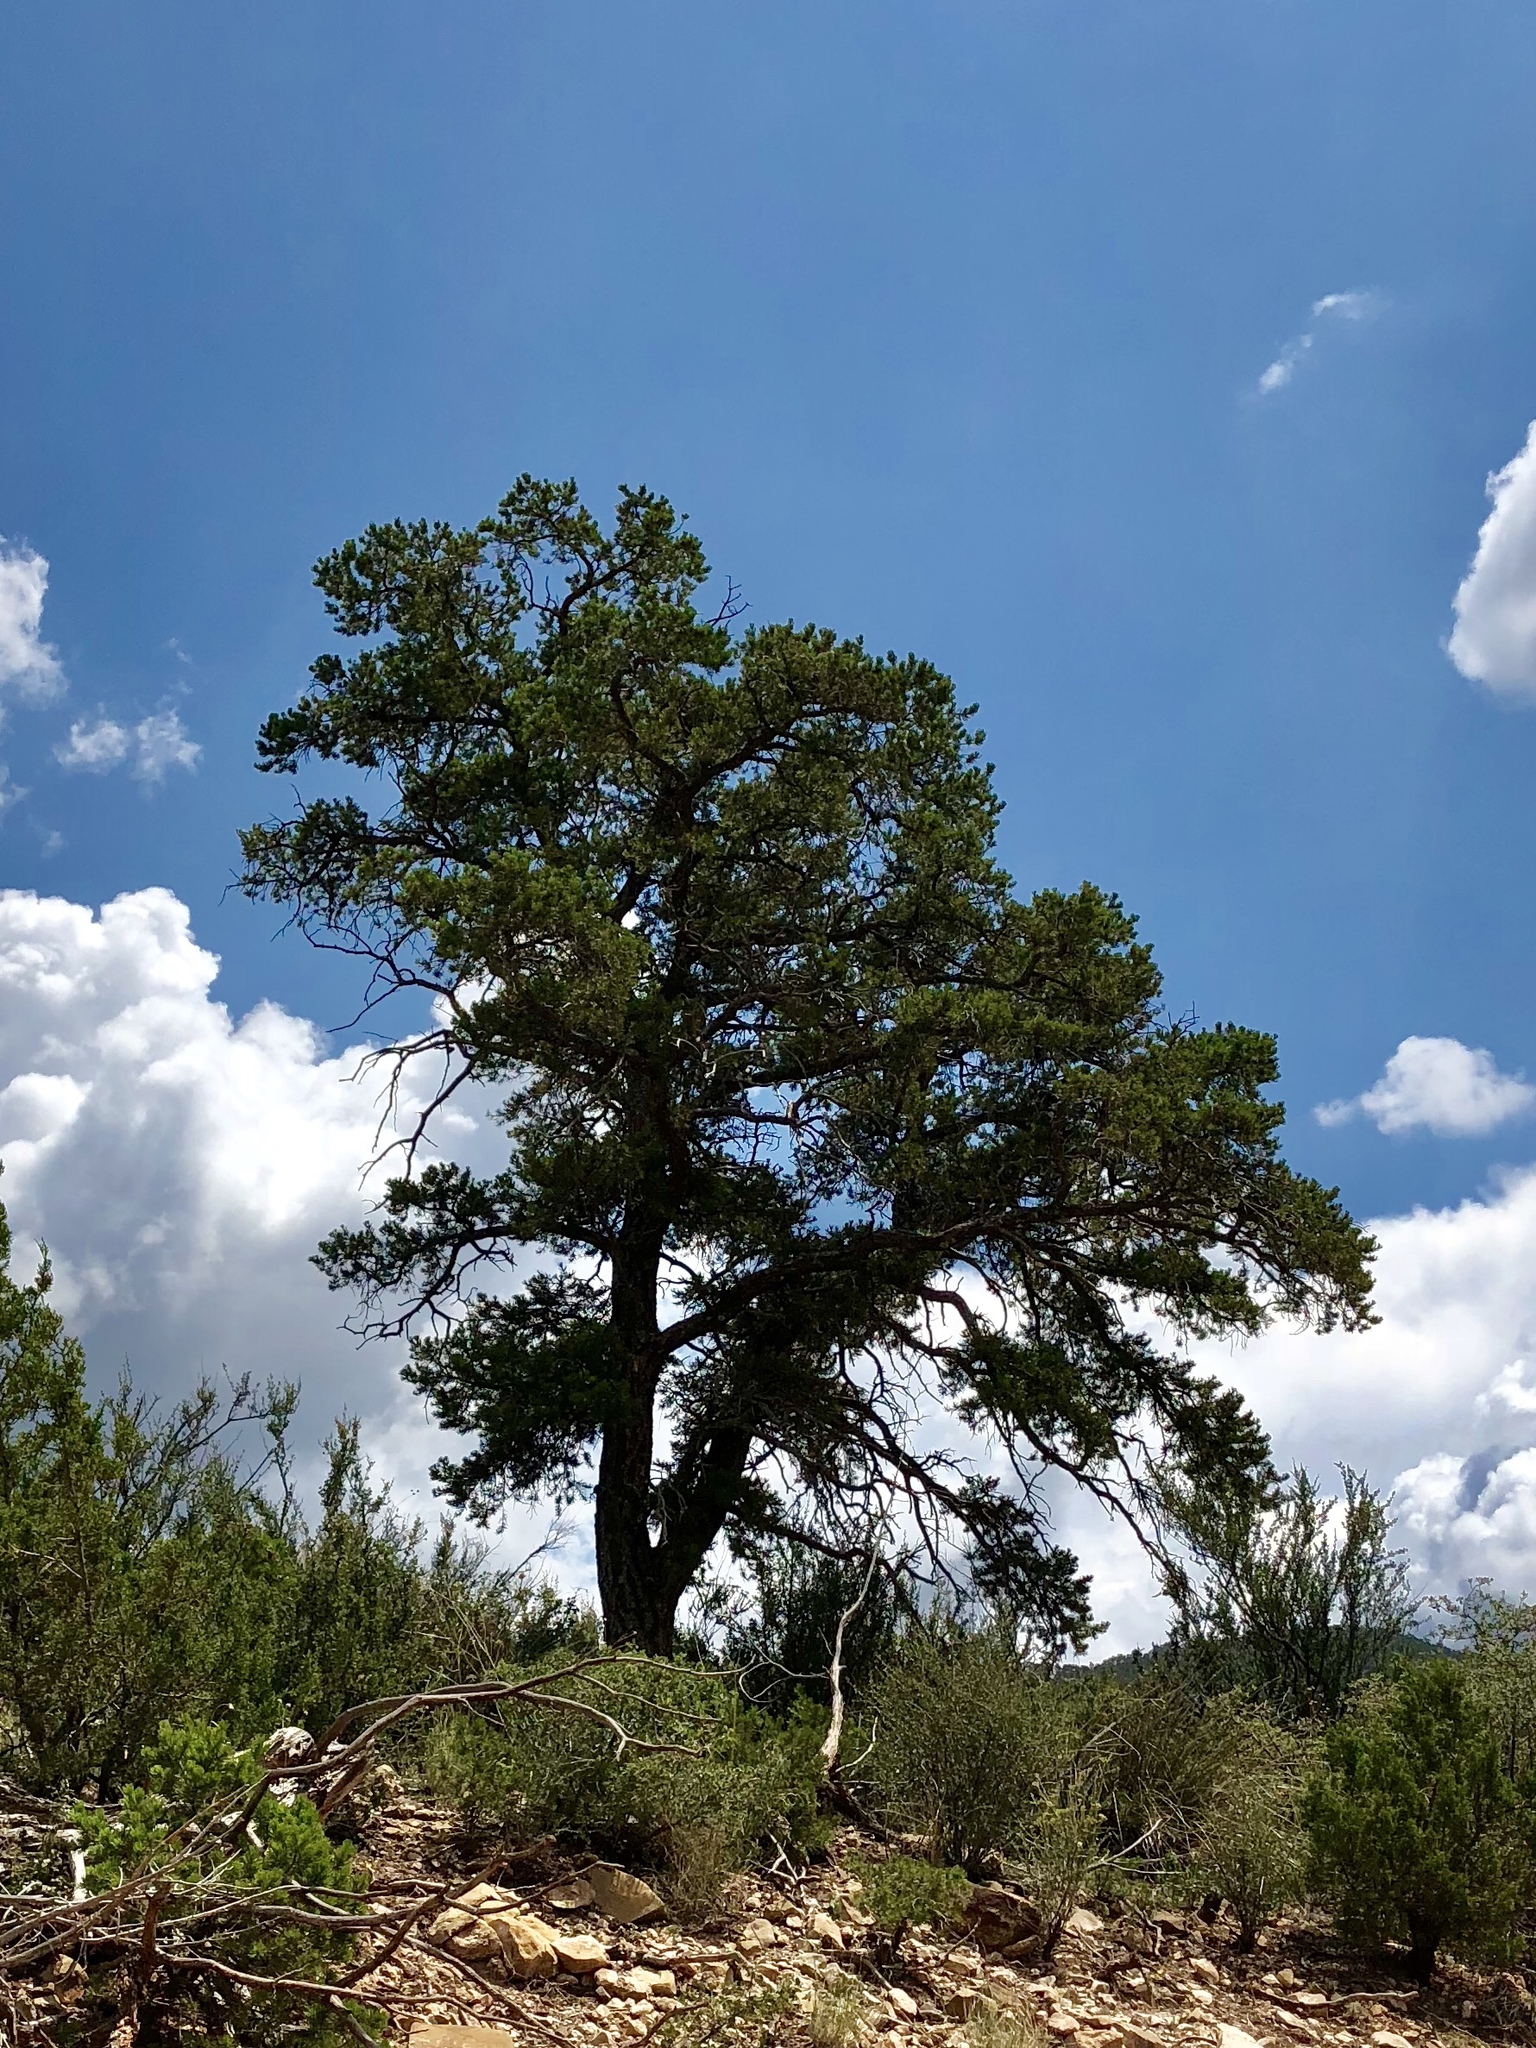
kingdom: Plantae
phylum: Tracheophyta
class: Pinopsida
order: Pinales
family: Pinaceae
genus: Pinus
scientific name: Pinus edulis
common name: Colorado pinyon
